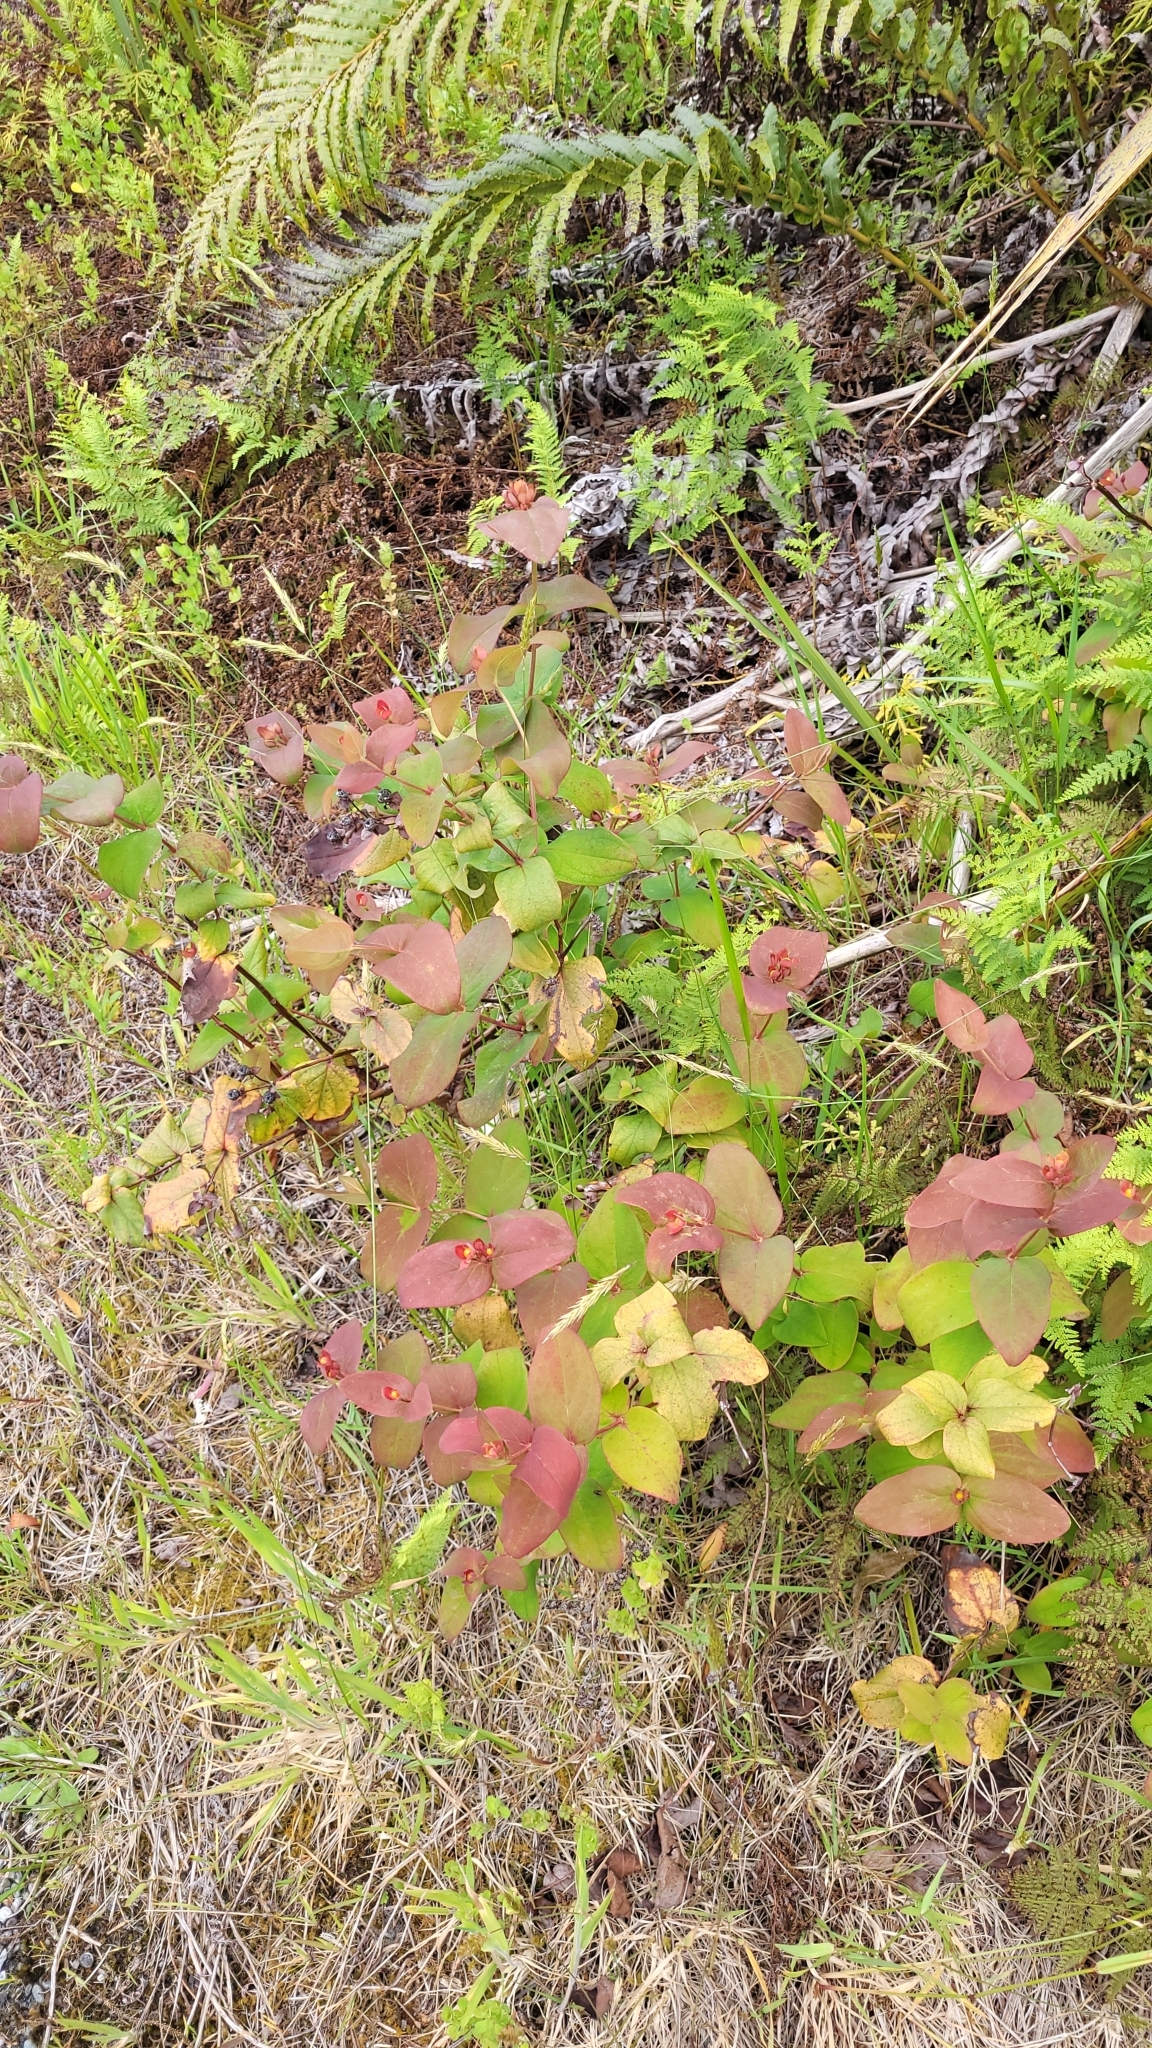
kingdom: Plantae
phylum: Tracheophyta
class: Magnoliopsida
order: Malpighiales
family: Hypericaceae
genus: Hypericum
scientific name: Hypericum androsaemum
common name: Sweet-amber
